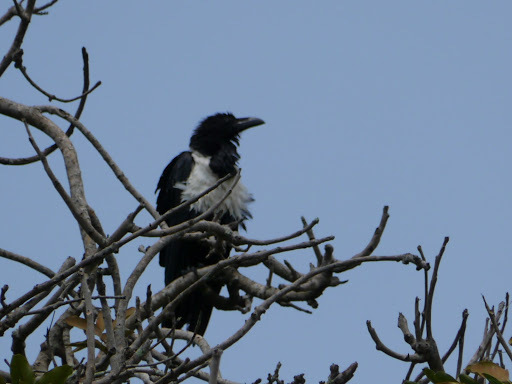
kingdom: Animalia
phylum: Chordata
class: Aves
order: Passeriformes
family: Corvidae
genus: Corvus
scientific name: Corvus albus
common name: Pied crow
